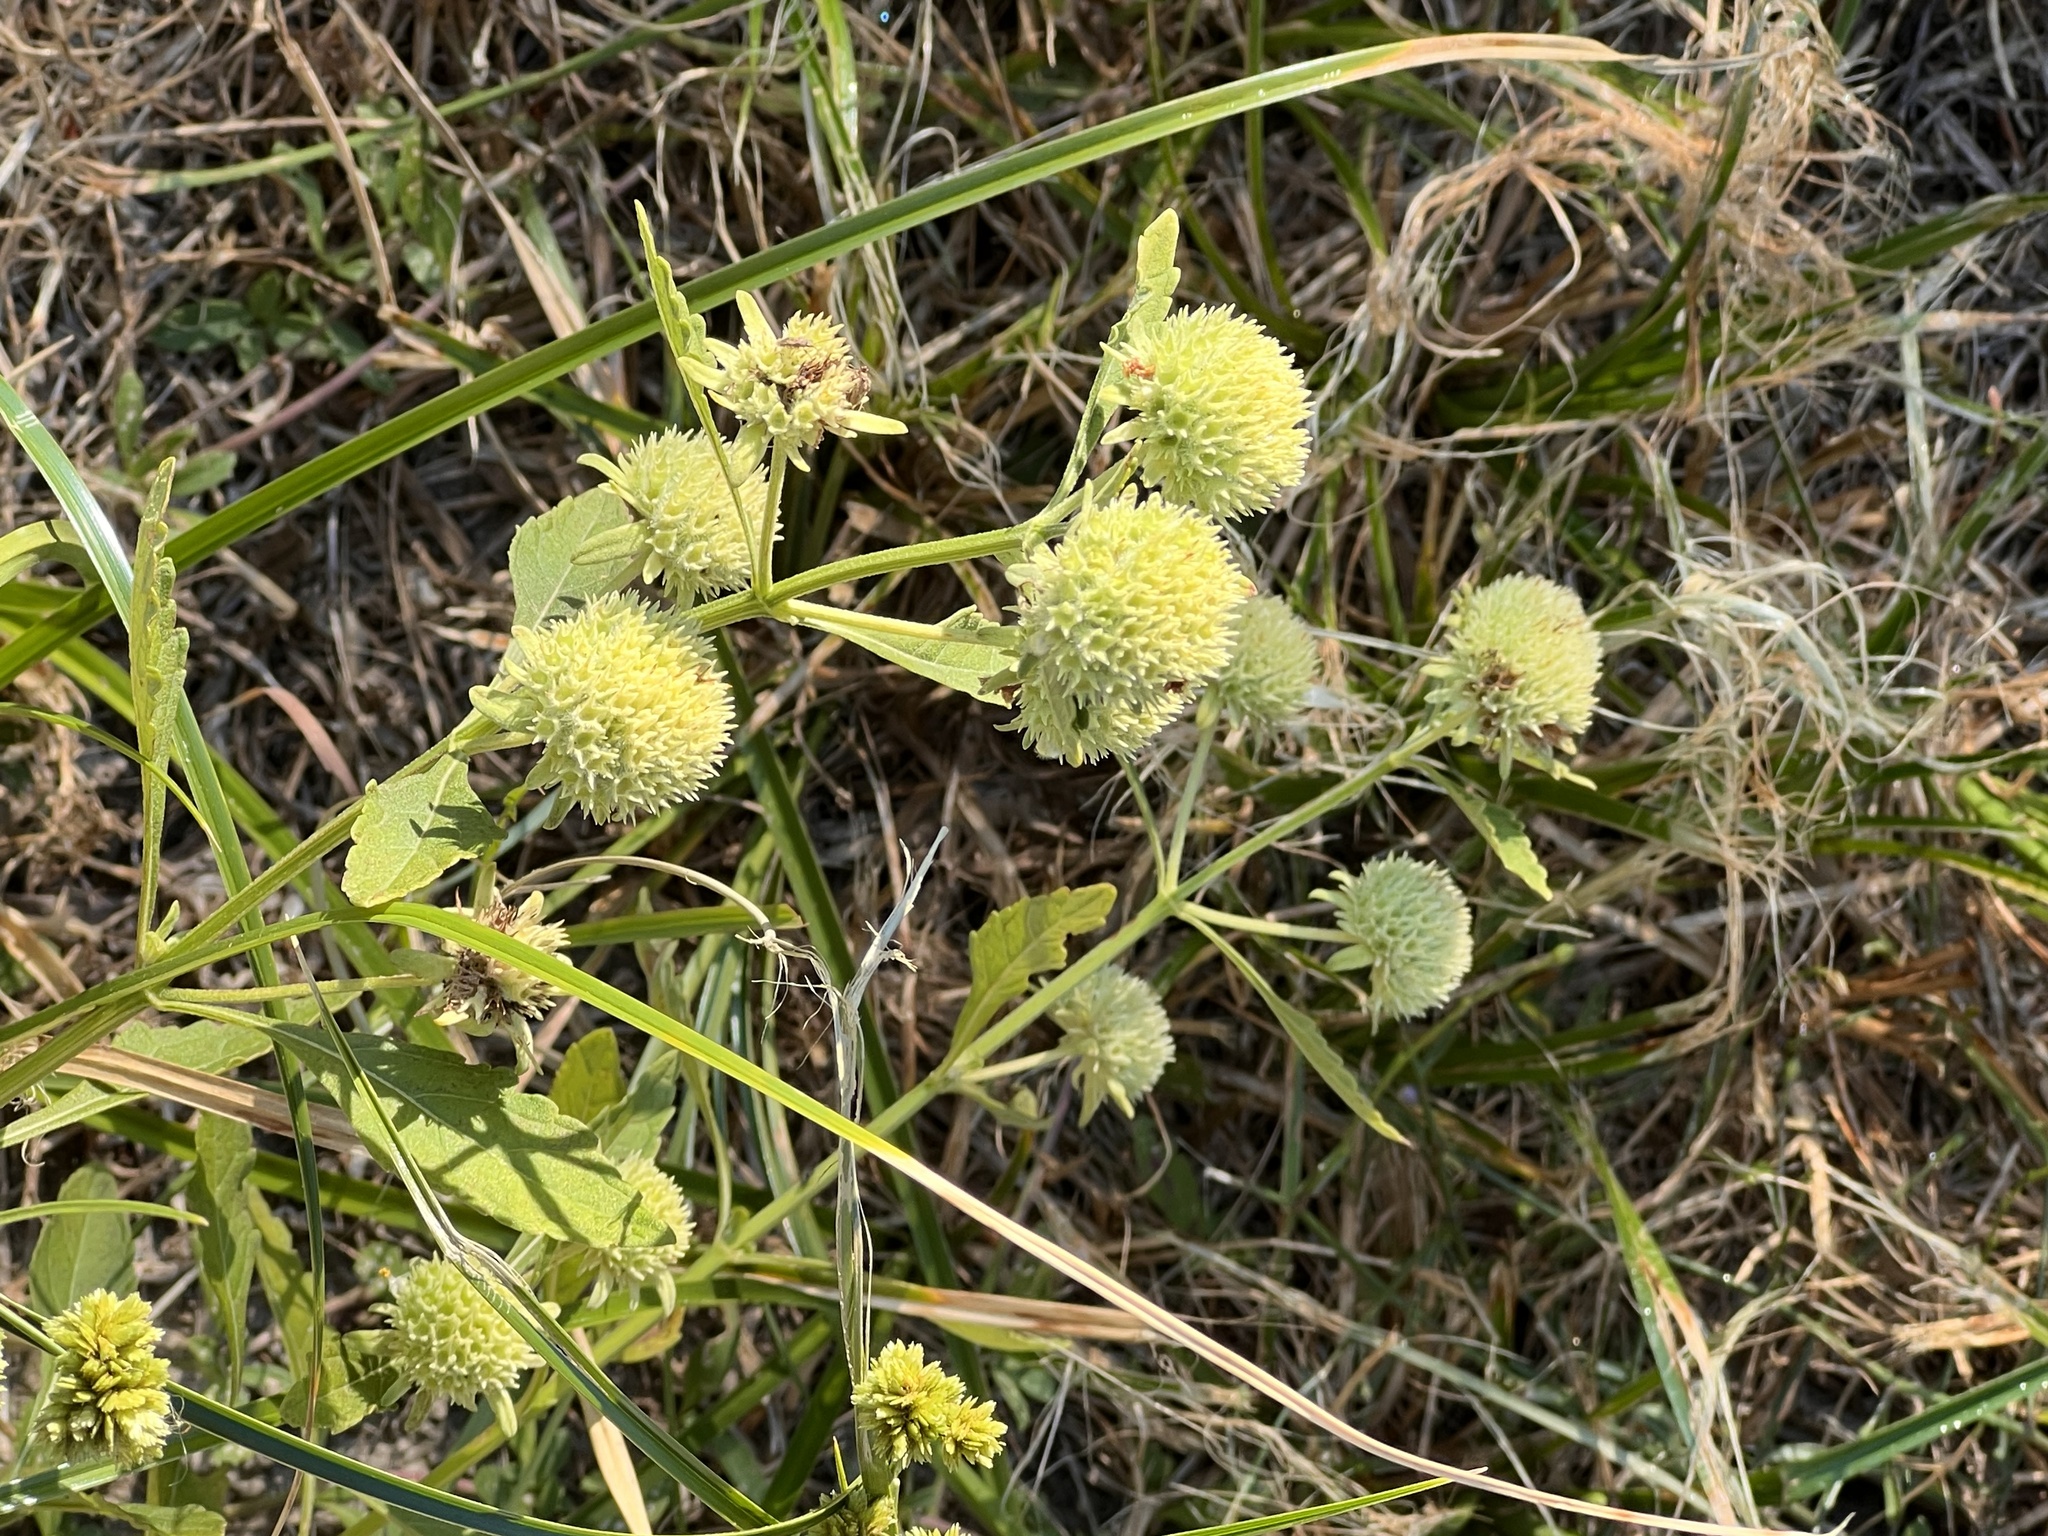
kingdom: Plantae
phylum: Tracheophyta
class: Magnoliopsida
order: Lamiales
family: Lamiaceae
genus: Hyptis
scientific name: Hyptis alata
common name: Cluster bush-mint
